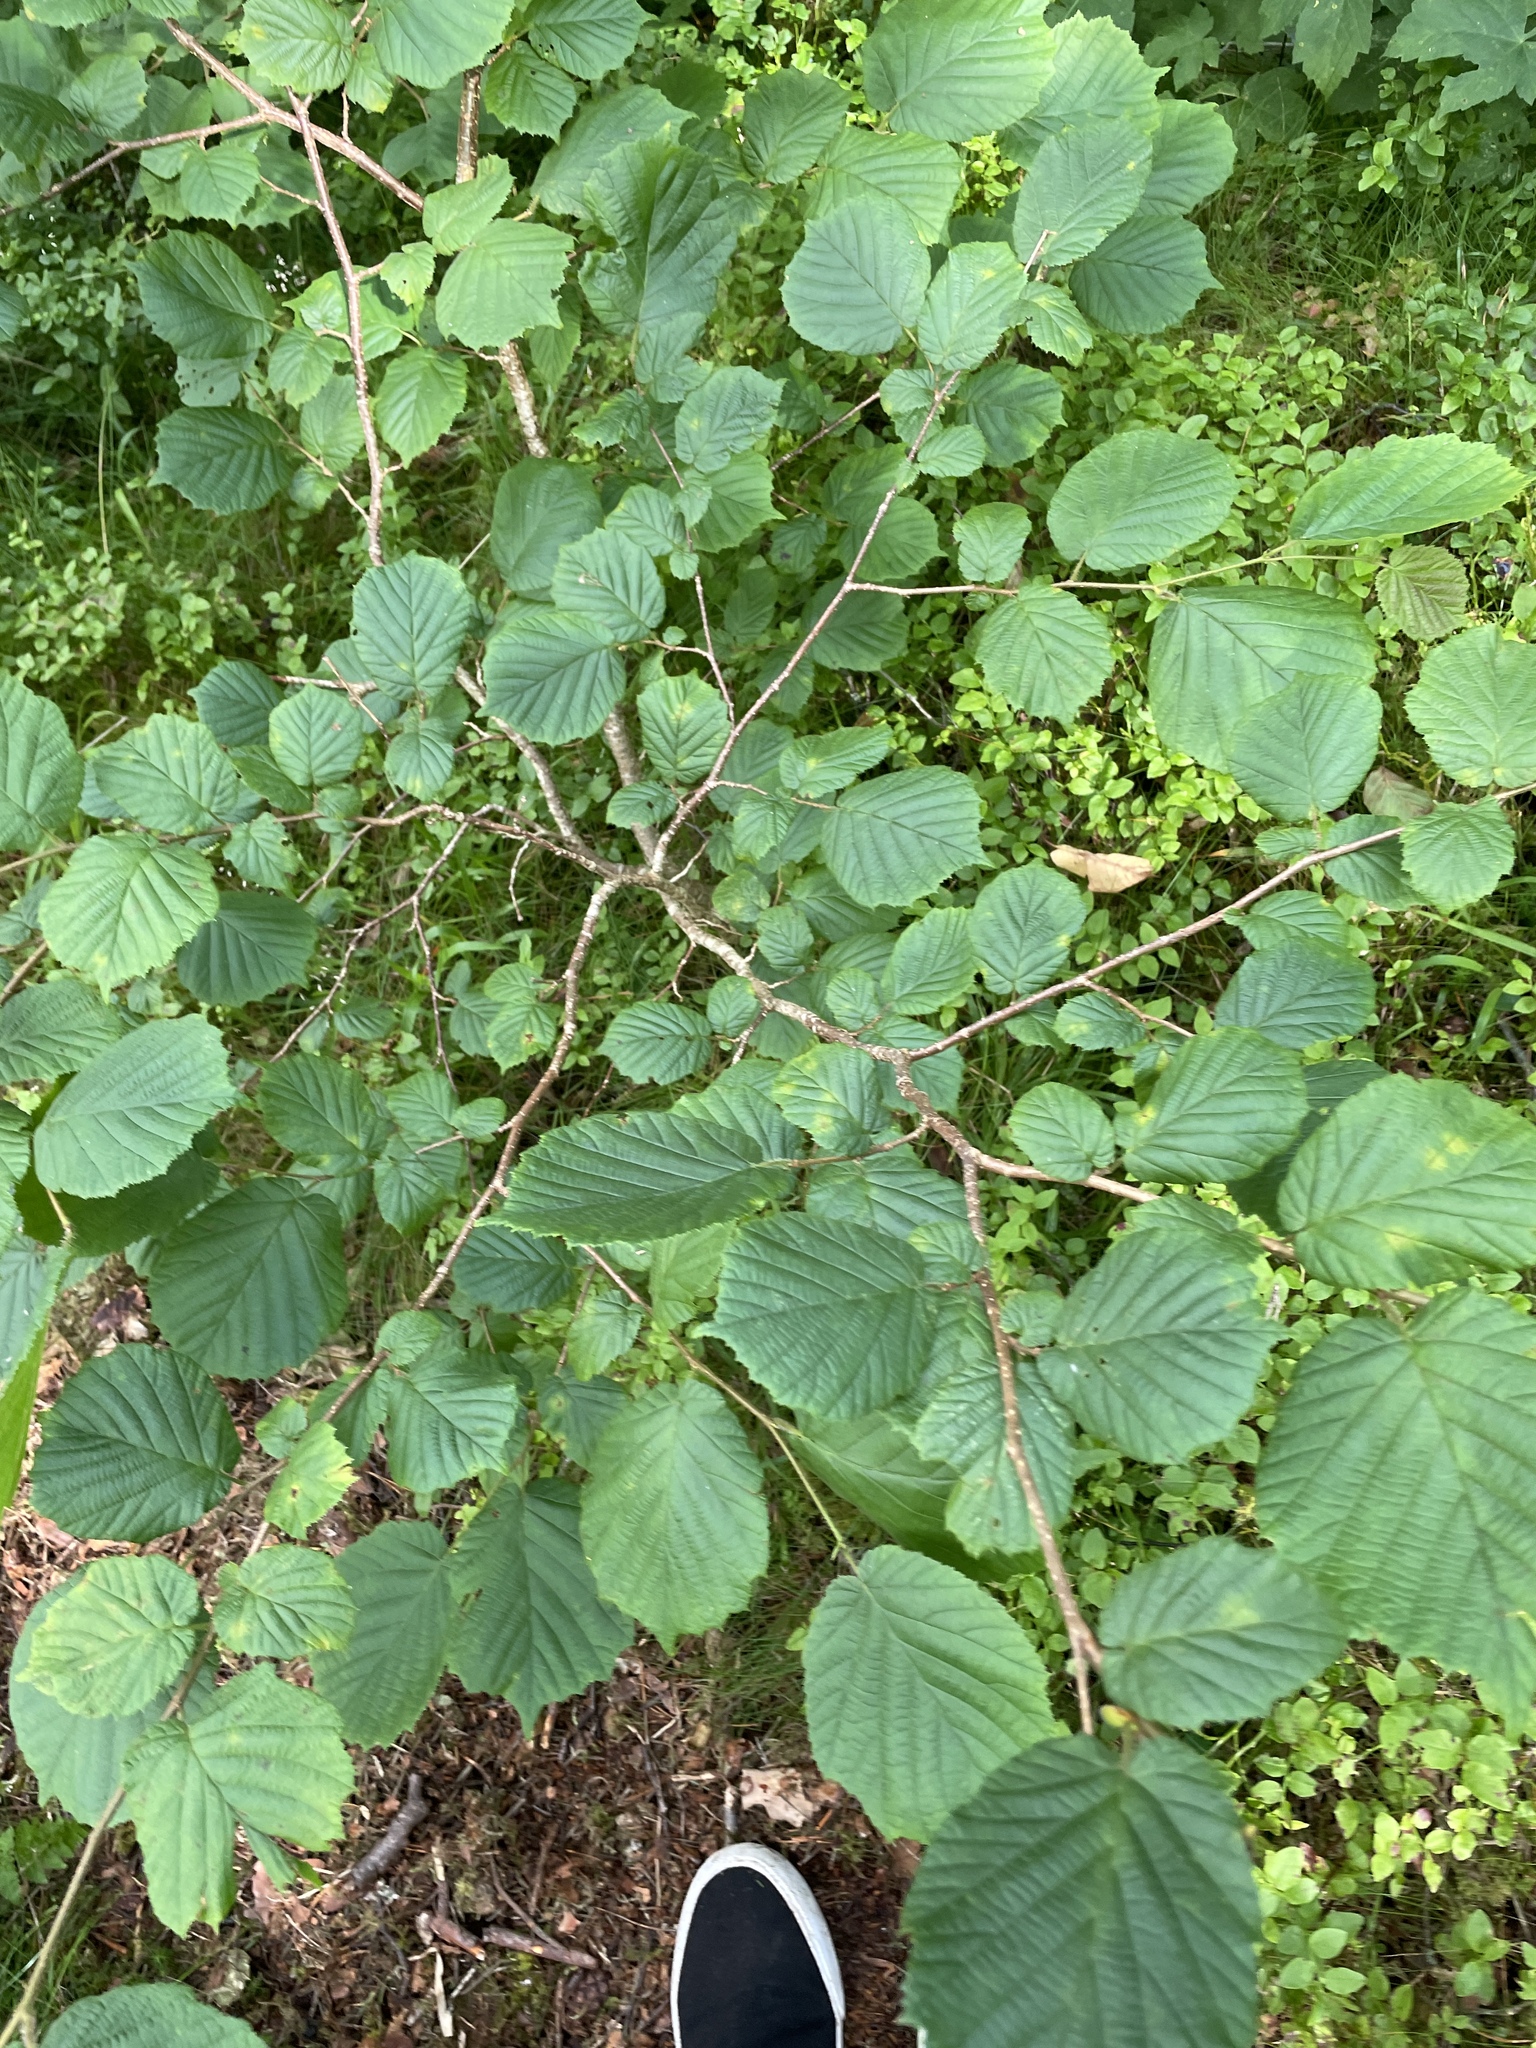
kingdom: Plantae
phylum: Tracheophyta
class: Magnoliopsida
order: Fagales
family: Betulaceae
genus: Corylus
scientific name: Corylus avellana
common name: European hazel
